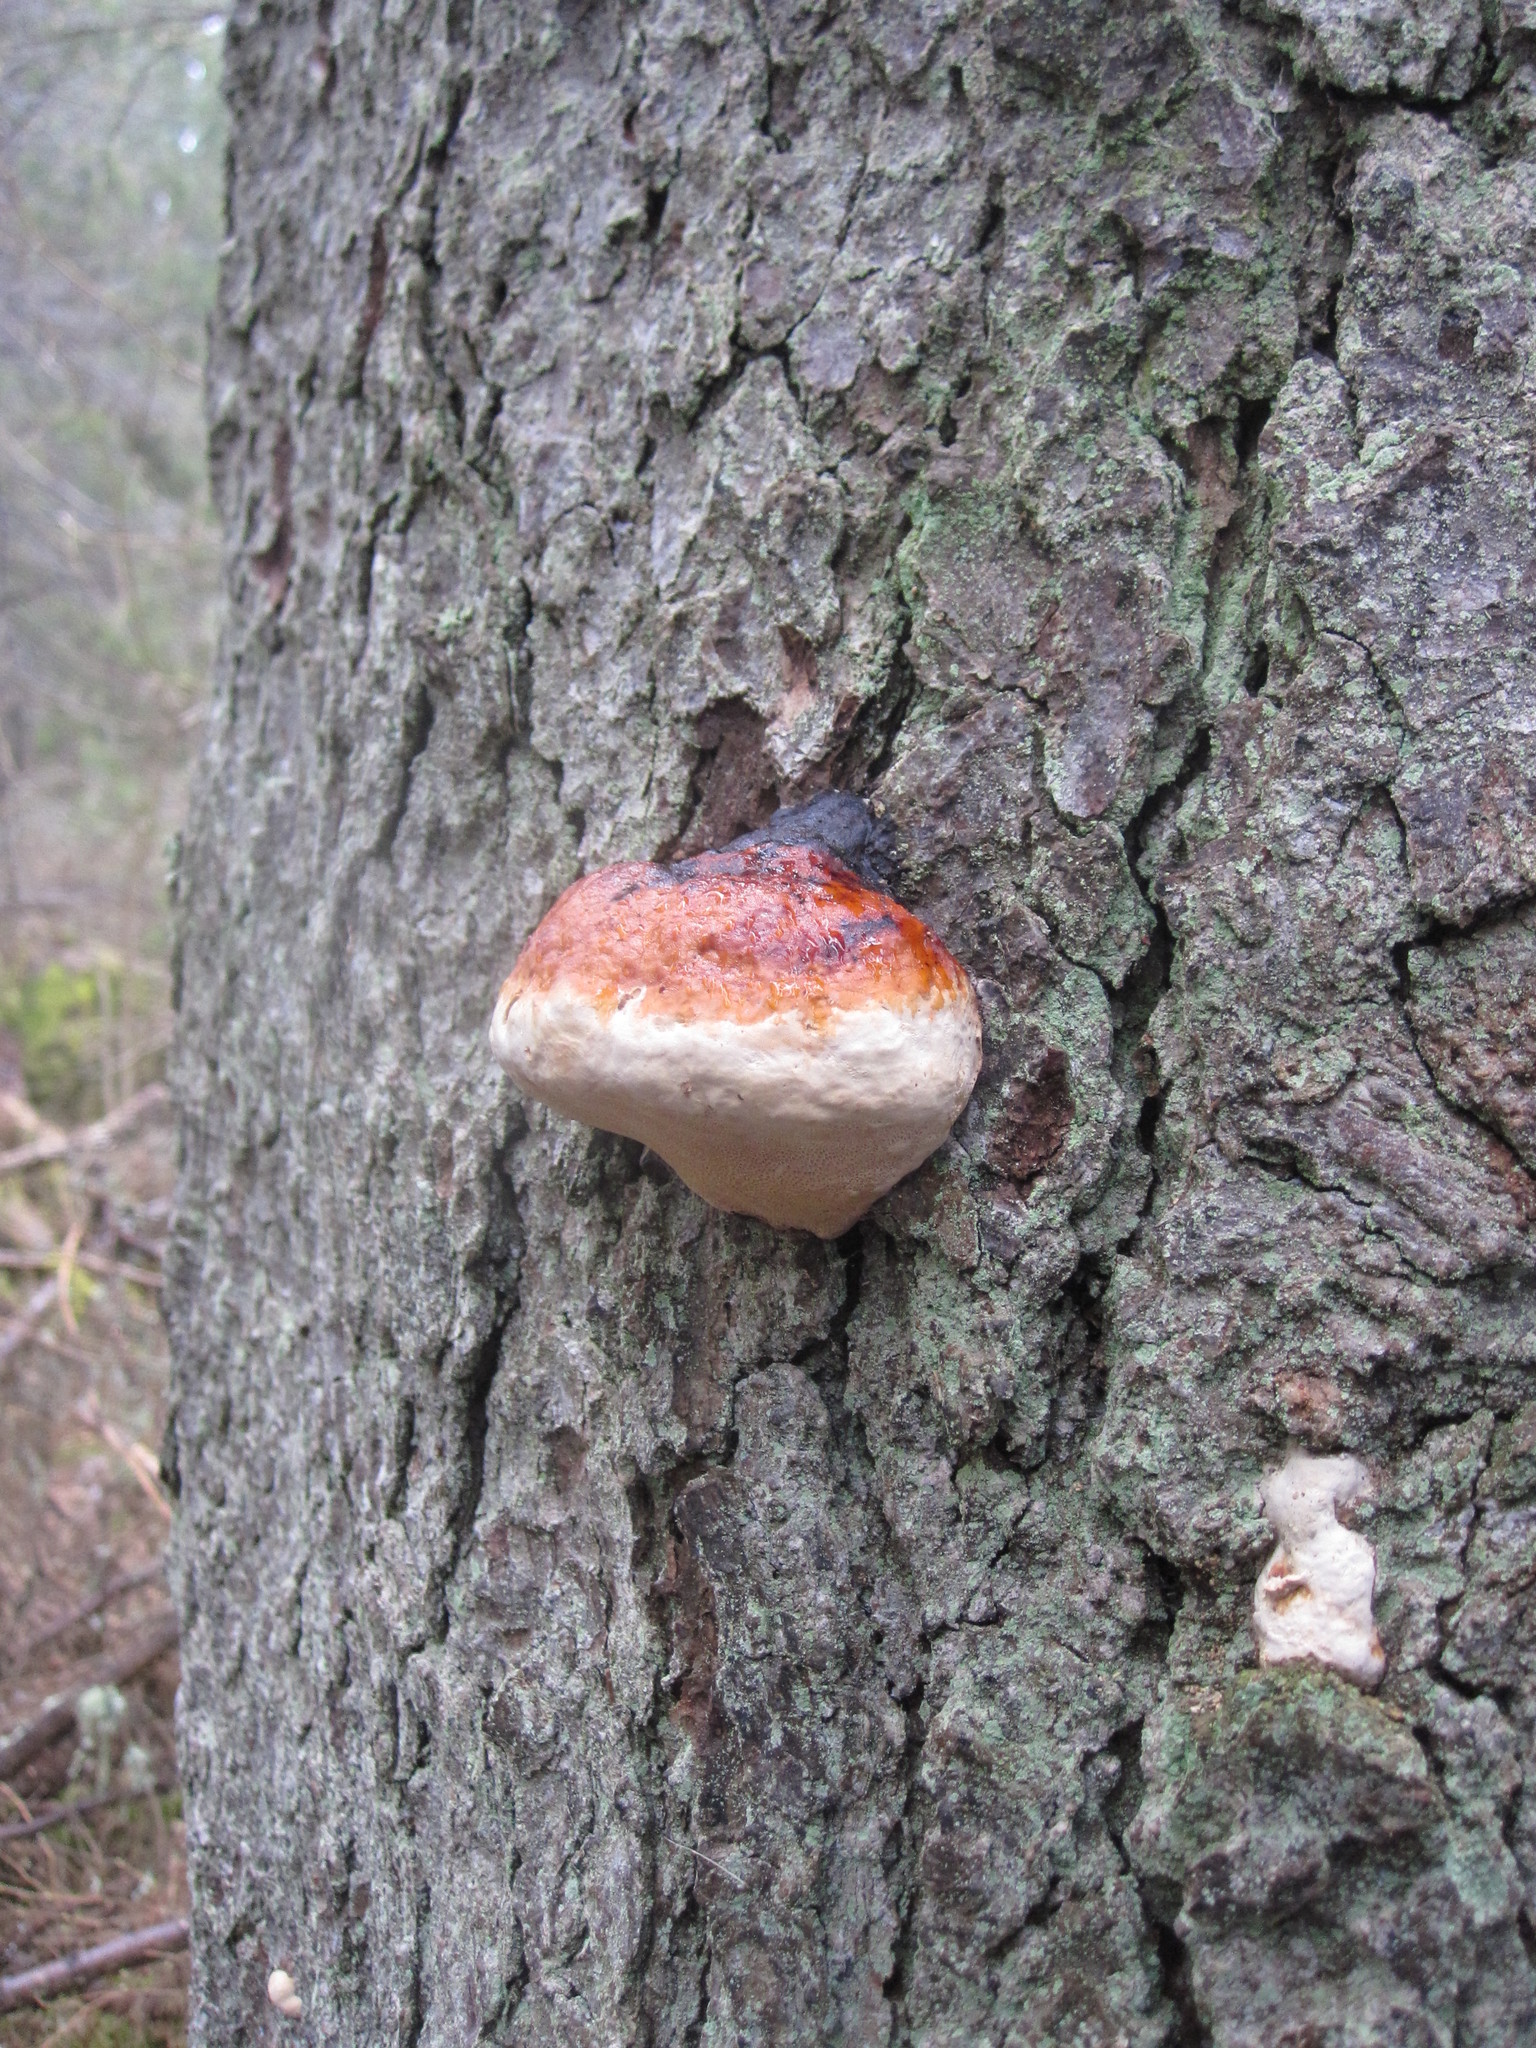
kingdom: Fungi
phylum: Basidiomycota
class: Agaricomycetes
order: Polyporales
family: Fomitopsidaceae
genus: Fomitopsis
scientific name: Fomitopsis pinicola
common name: Red-belted bracket
